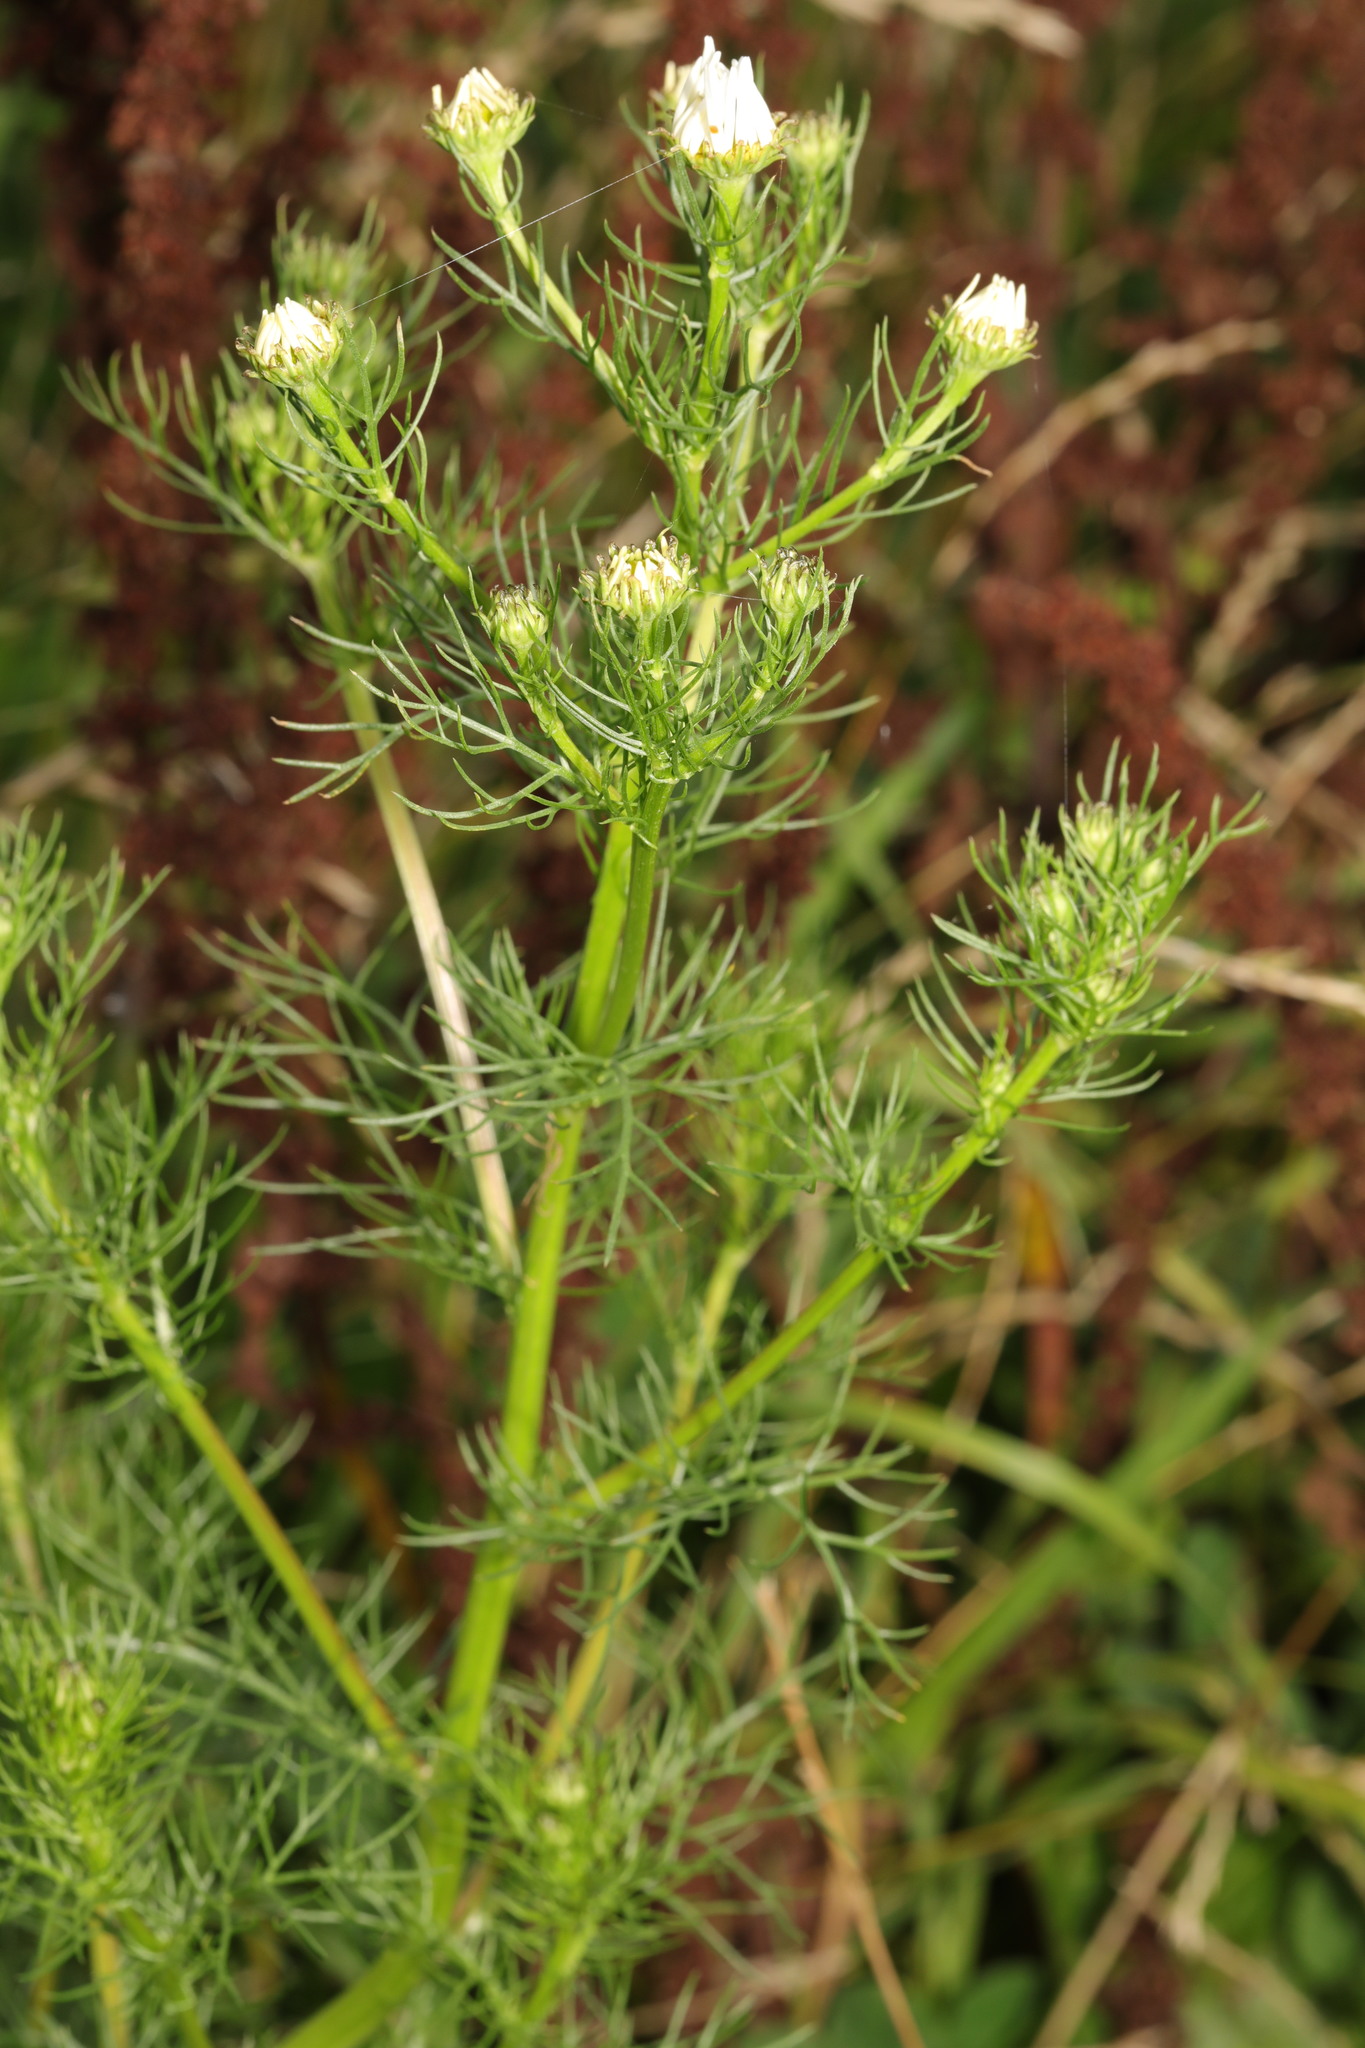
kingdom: Plantae
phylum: Tracheophyta
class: Magnoliopsida
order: Asterales
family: Asteraceae
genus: Tripleurospermum
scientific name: Tripleurospermum inodorum
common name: Scentless mayweed
